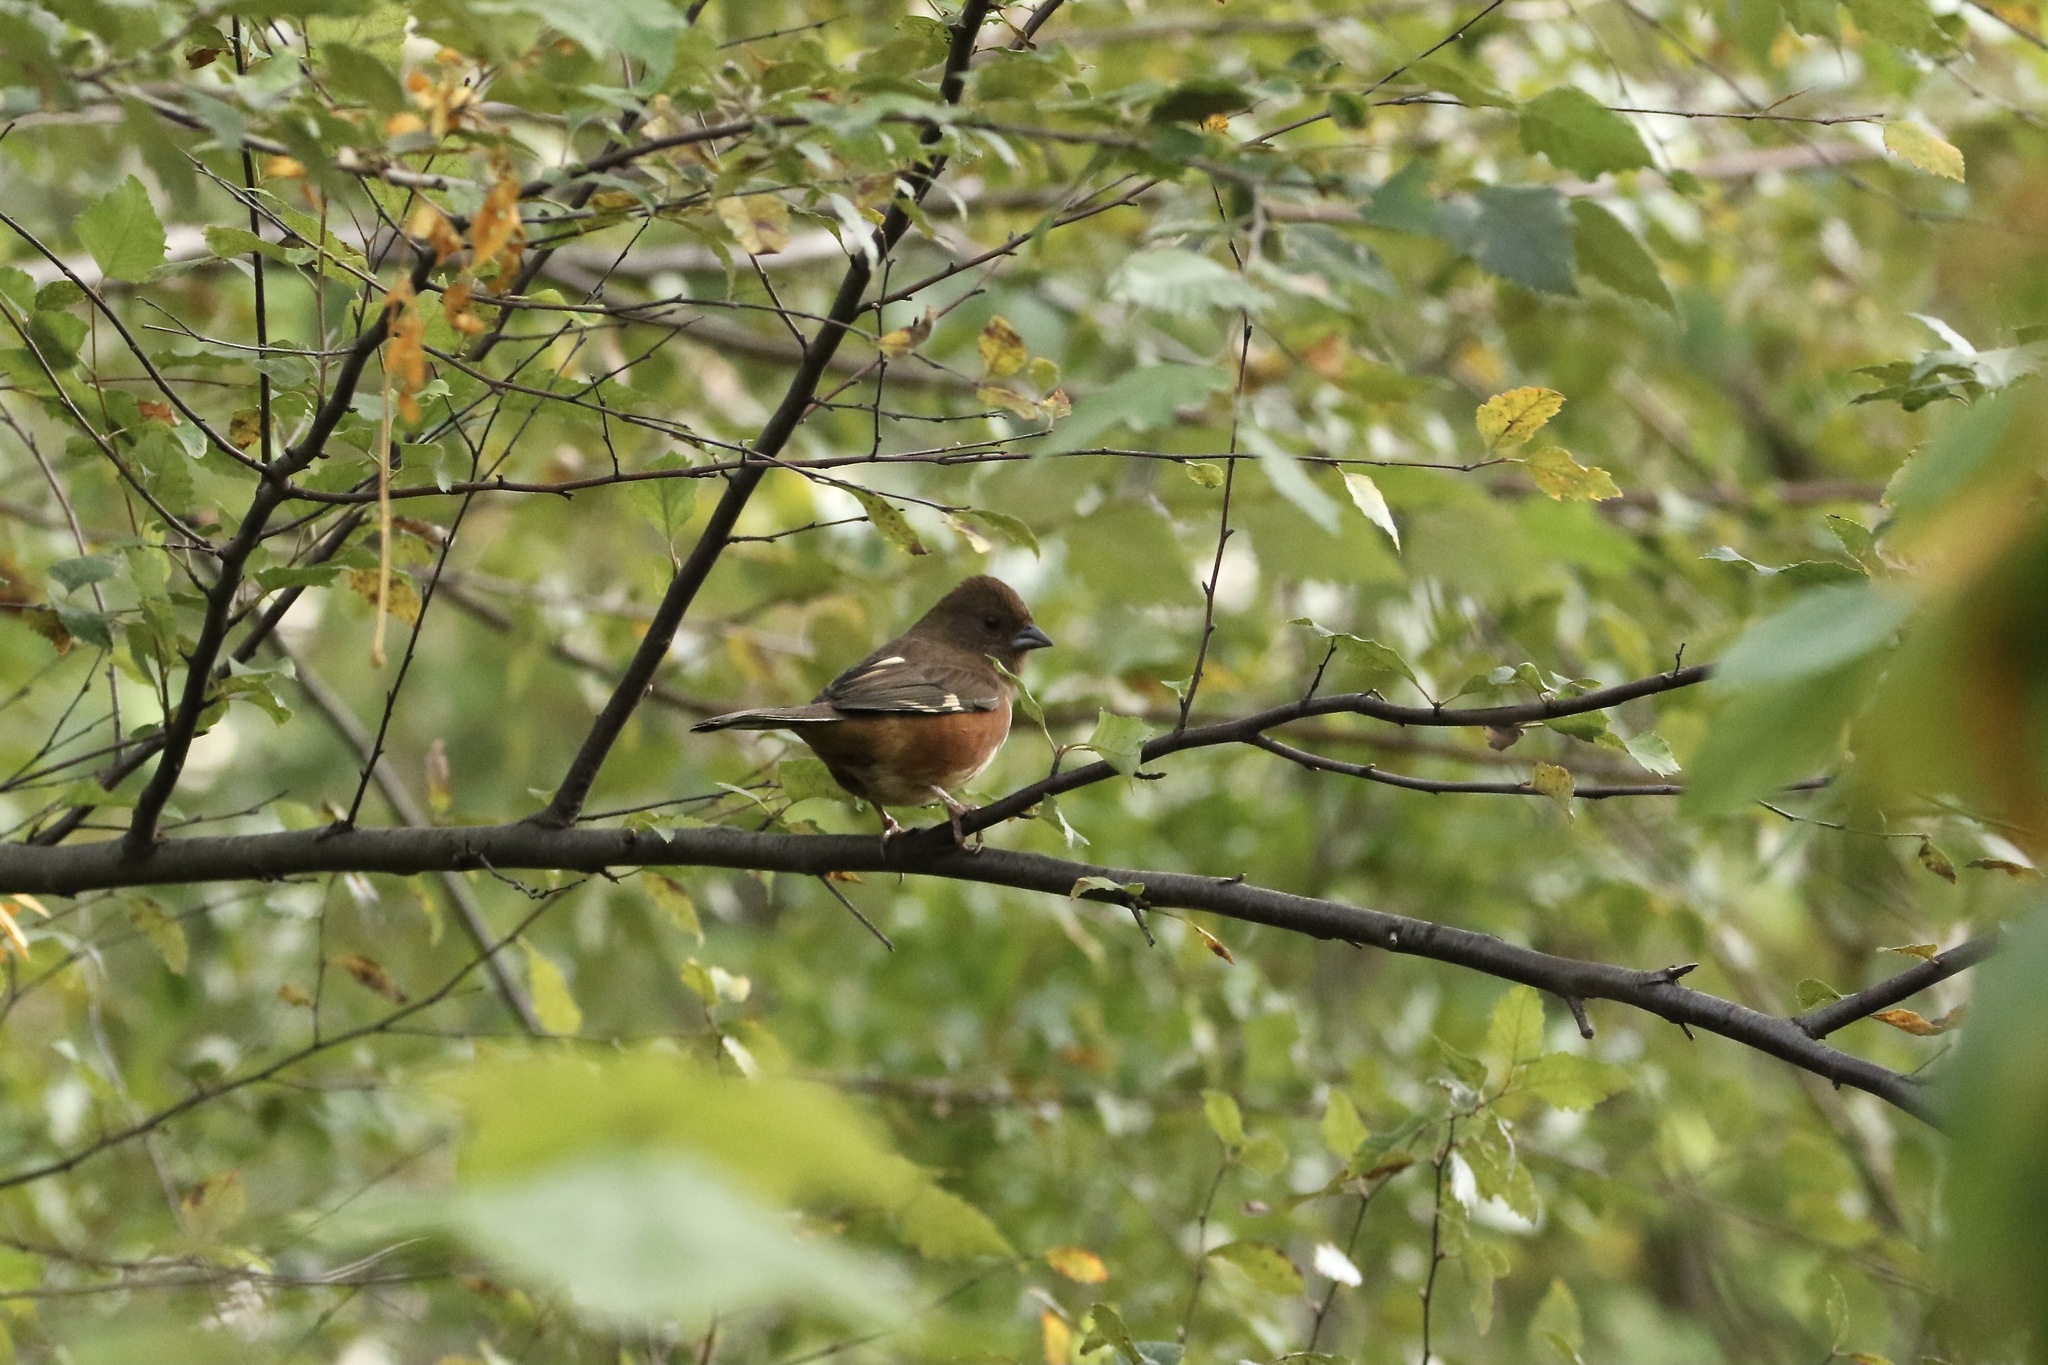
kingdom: Animalia
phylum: Chordata
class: Aves
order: Passeriformes
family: Passerellidae
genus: Pipilo
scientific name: Pipilo erythrophthalmus
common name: Eastern towhee
